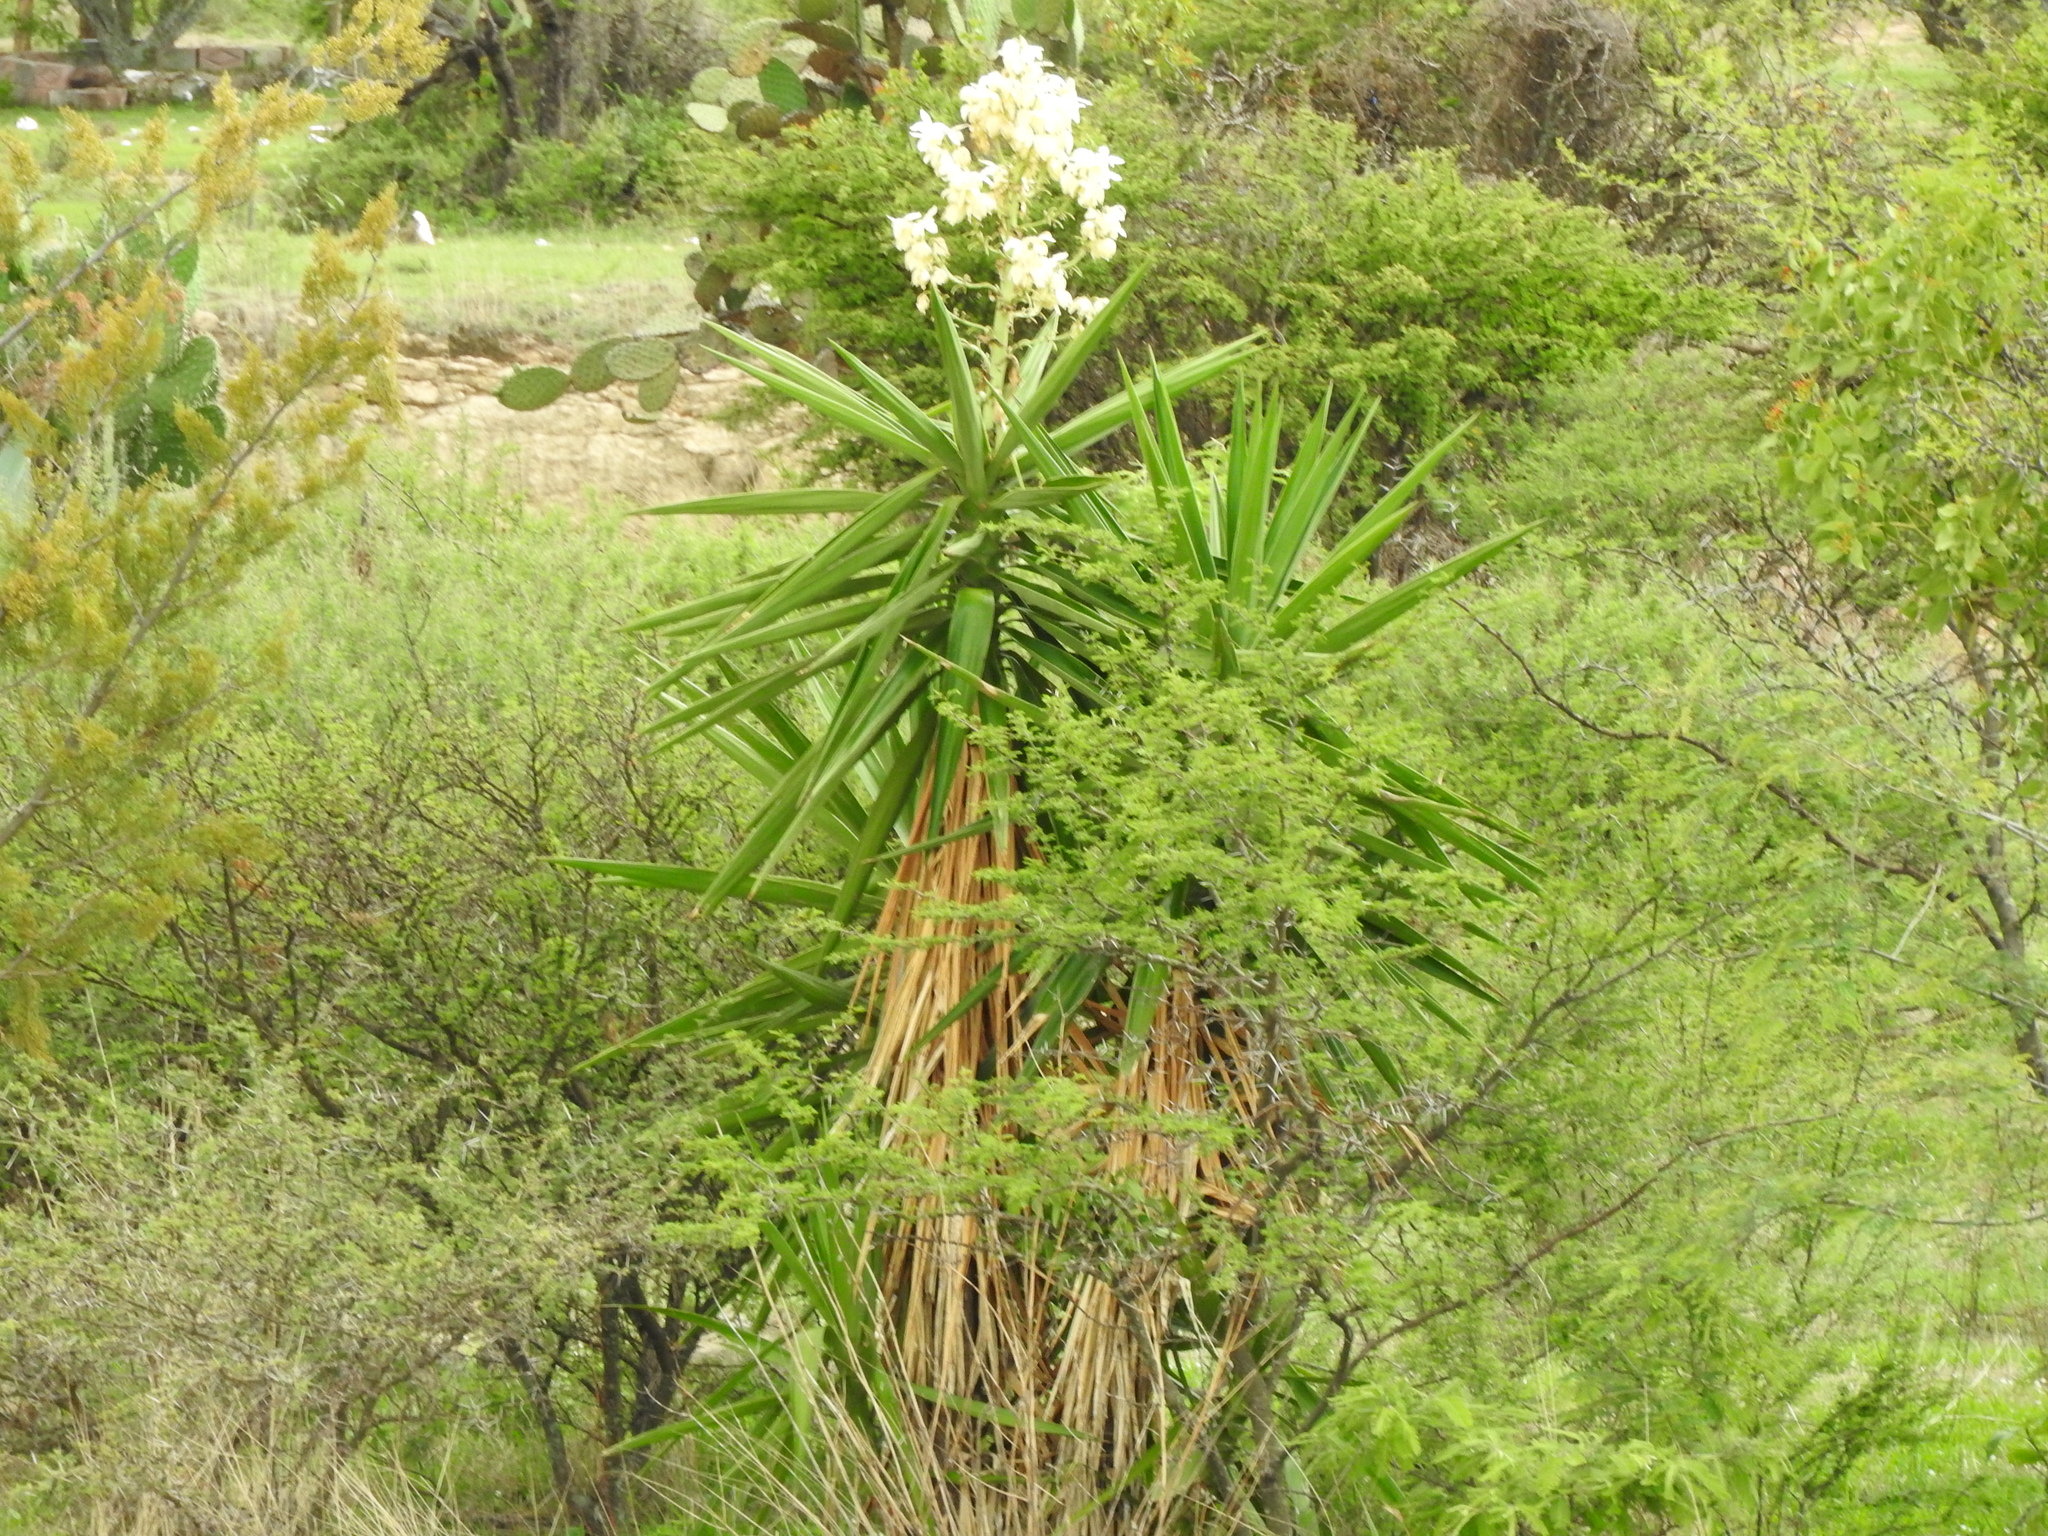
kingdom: Plantae
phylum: Tracheophyta
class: Liliopsida
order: Asparagales
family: Asparagaceae
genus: Yucca
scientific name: Yucca gigantea
